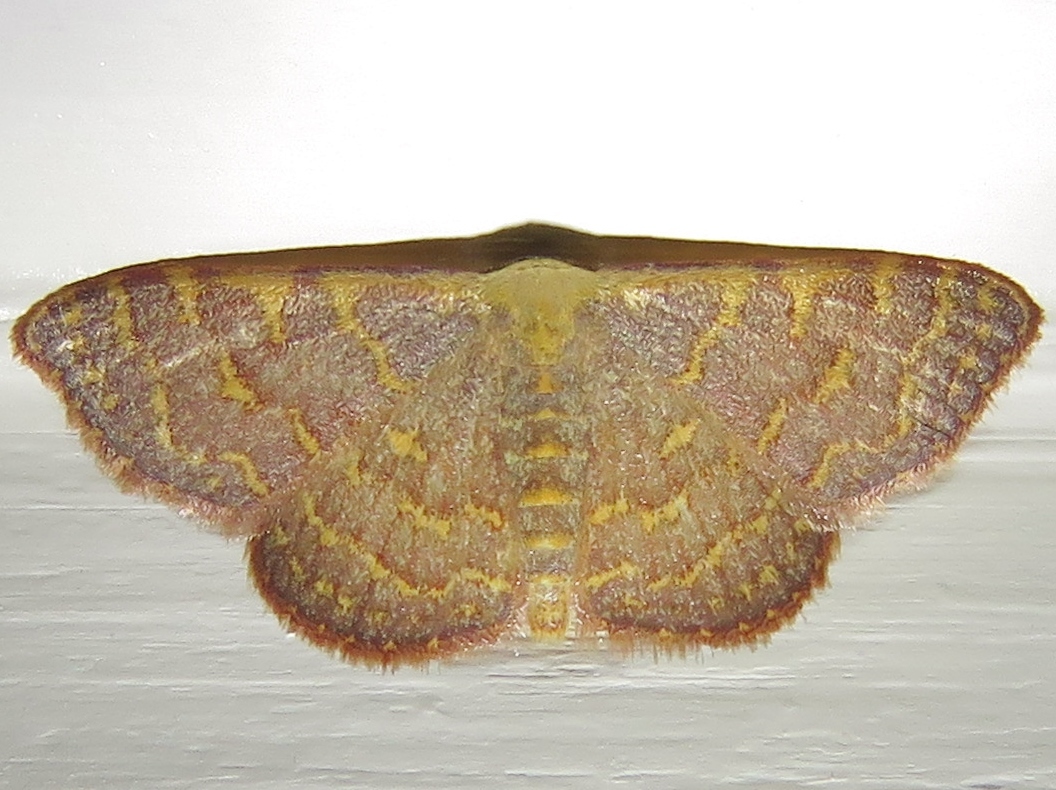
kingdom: Animalia
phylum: Arthropoda
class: Insecta
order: Lepidoptera
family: Geometridae
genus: Leptostales
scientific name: Leptostales pannaria
